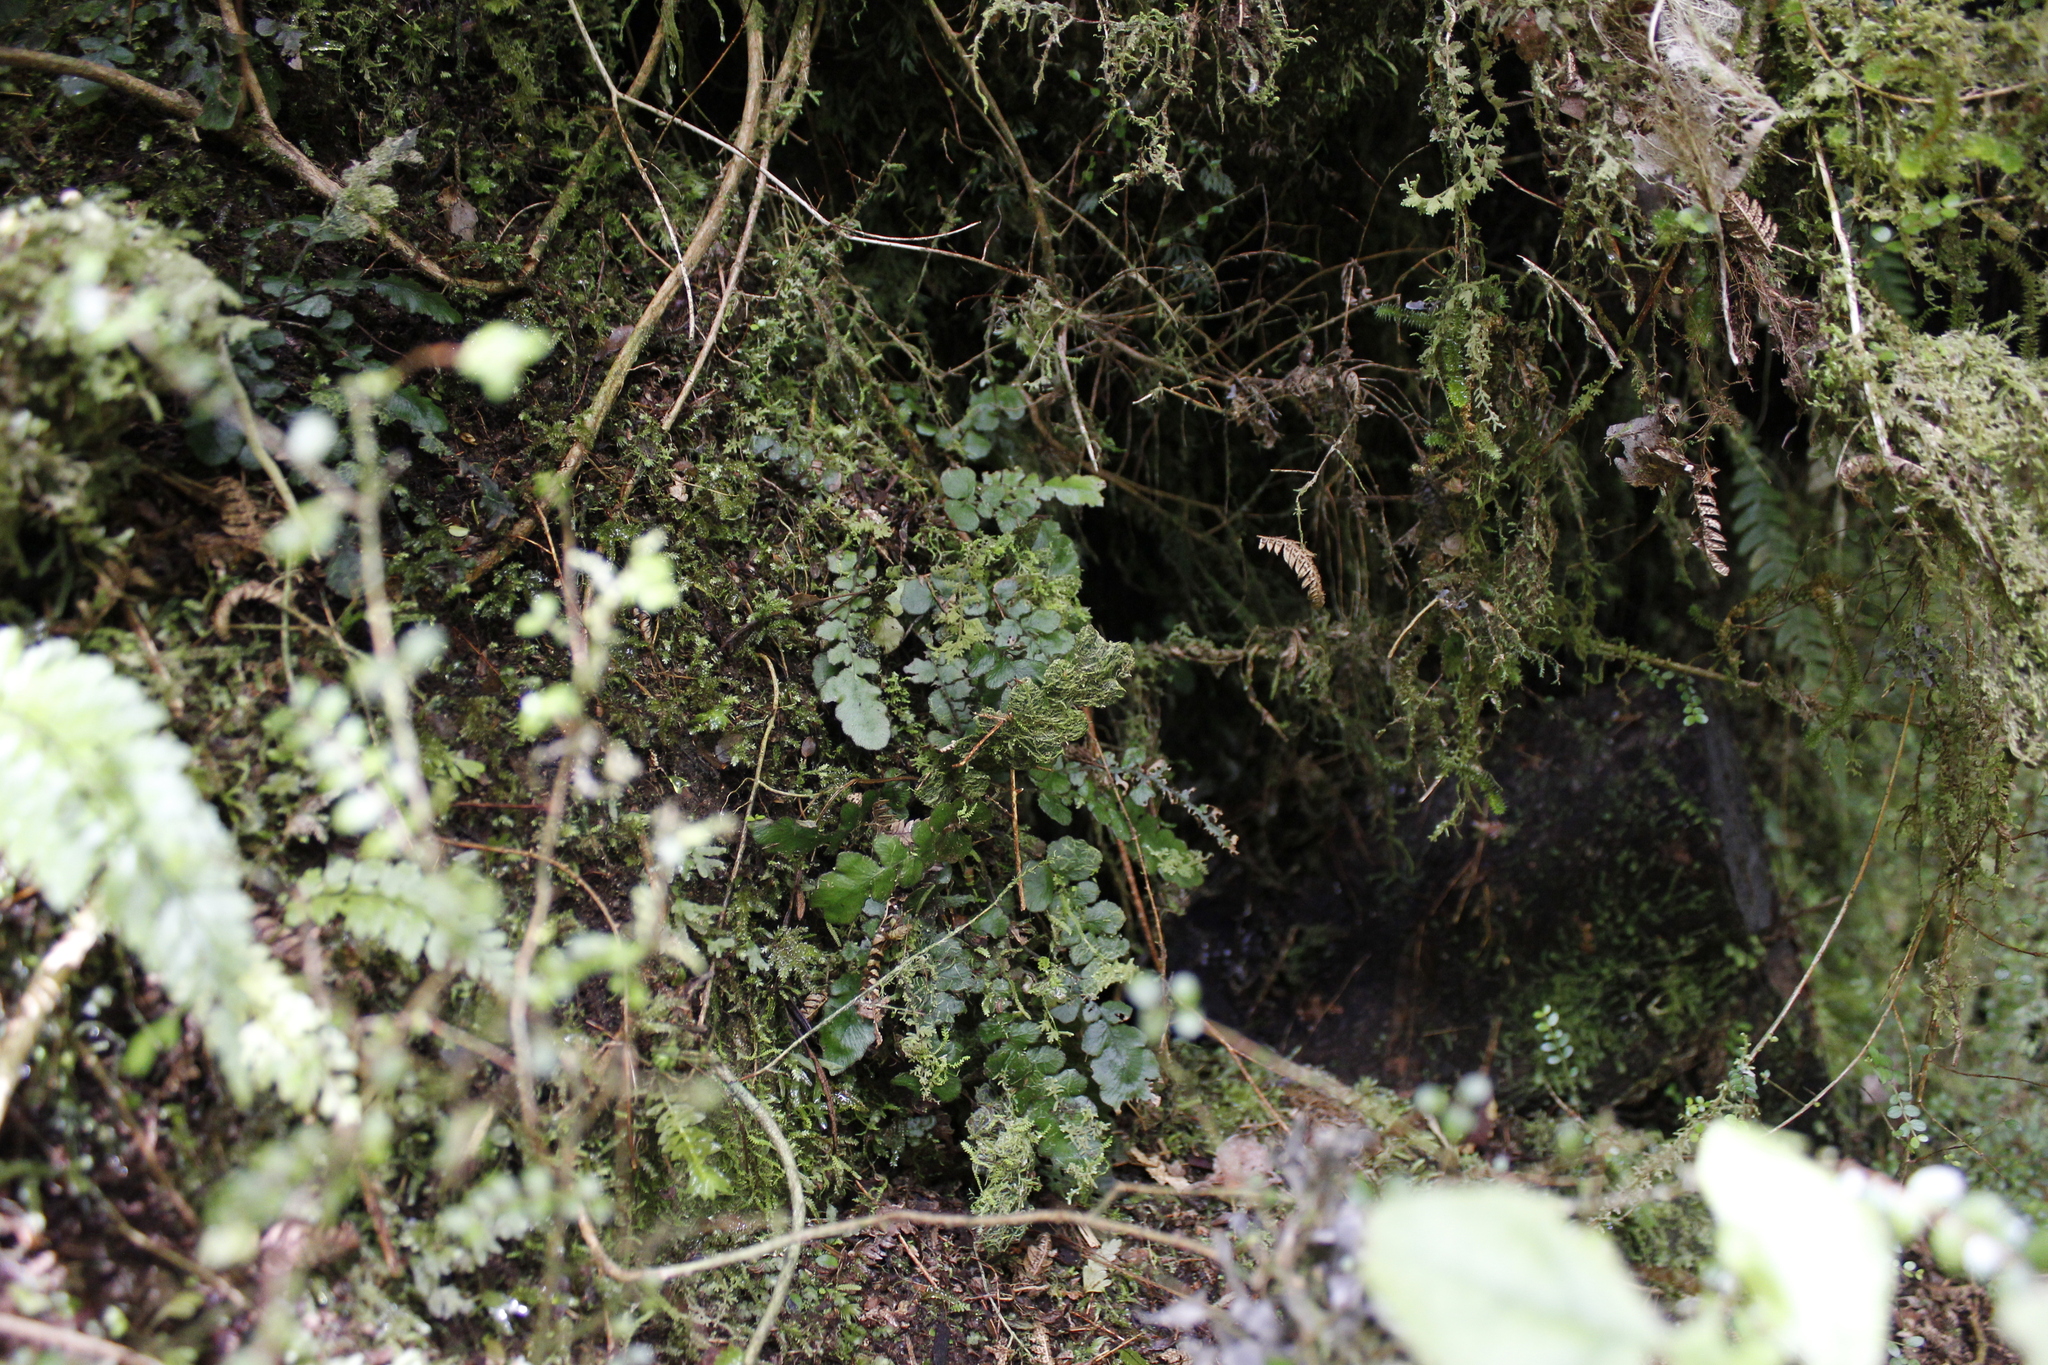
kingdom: Plantae
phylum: Tracheophyta
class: Polypodiopsida
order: Polypodiales
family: Blechnaceae
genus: Cranfillia
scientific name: Cranfillia nigra
